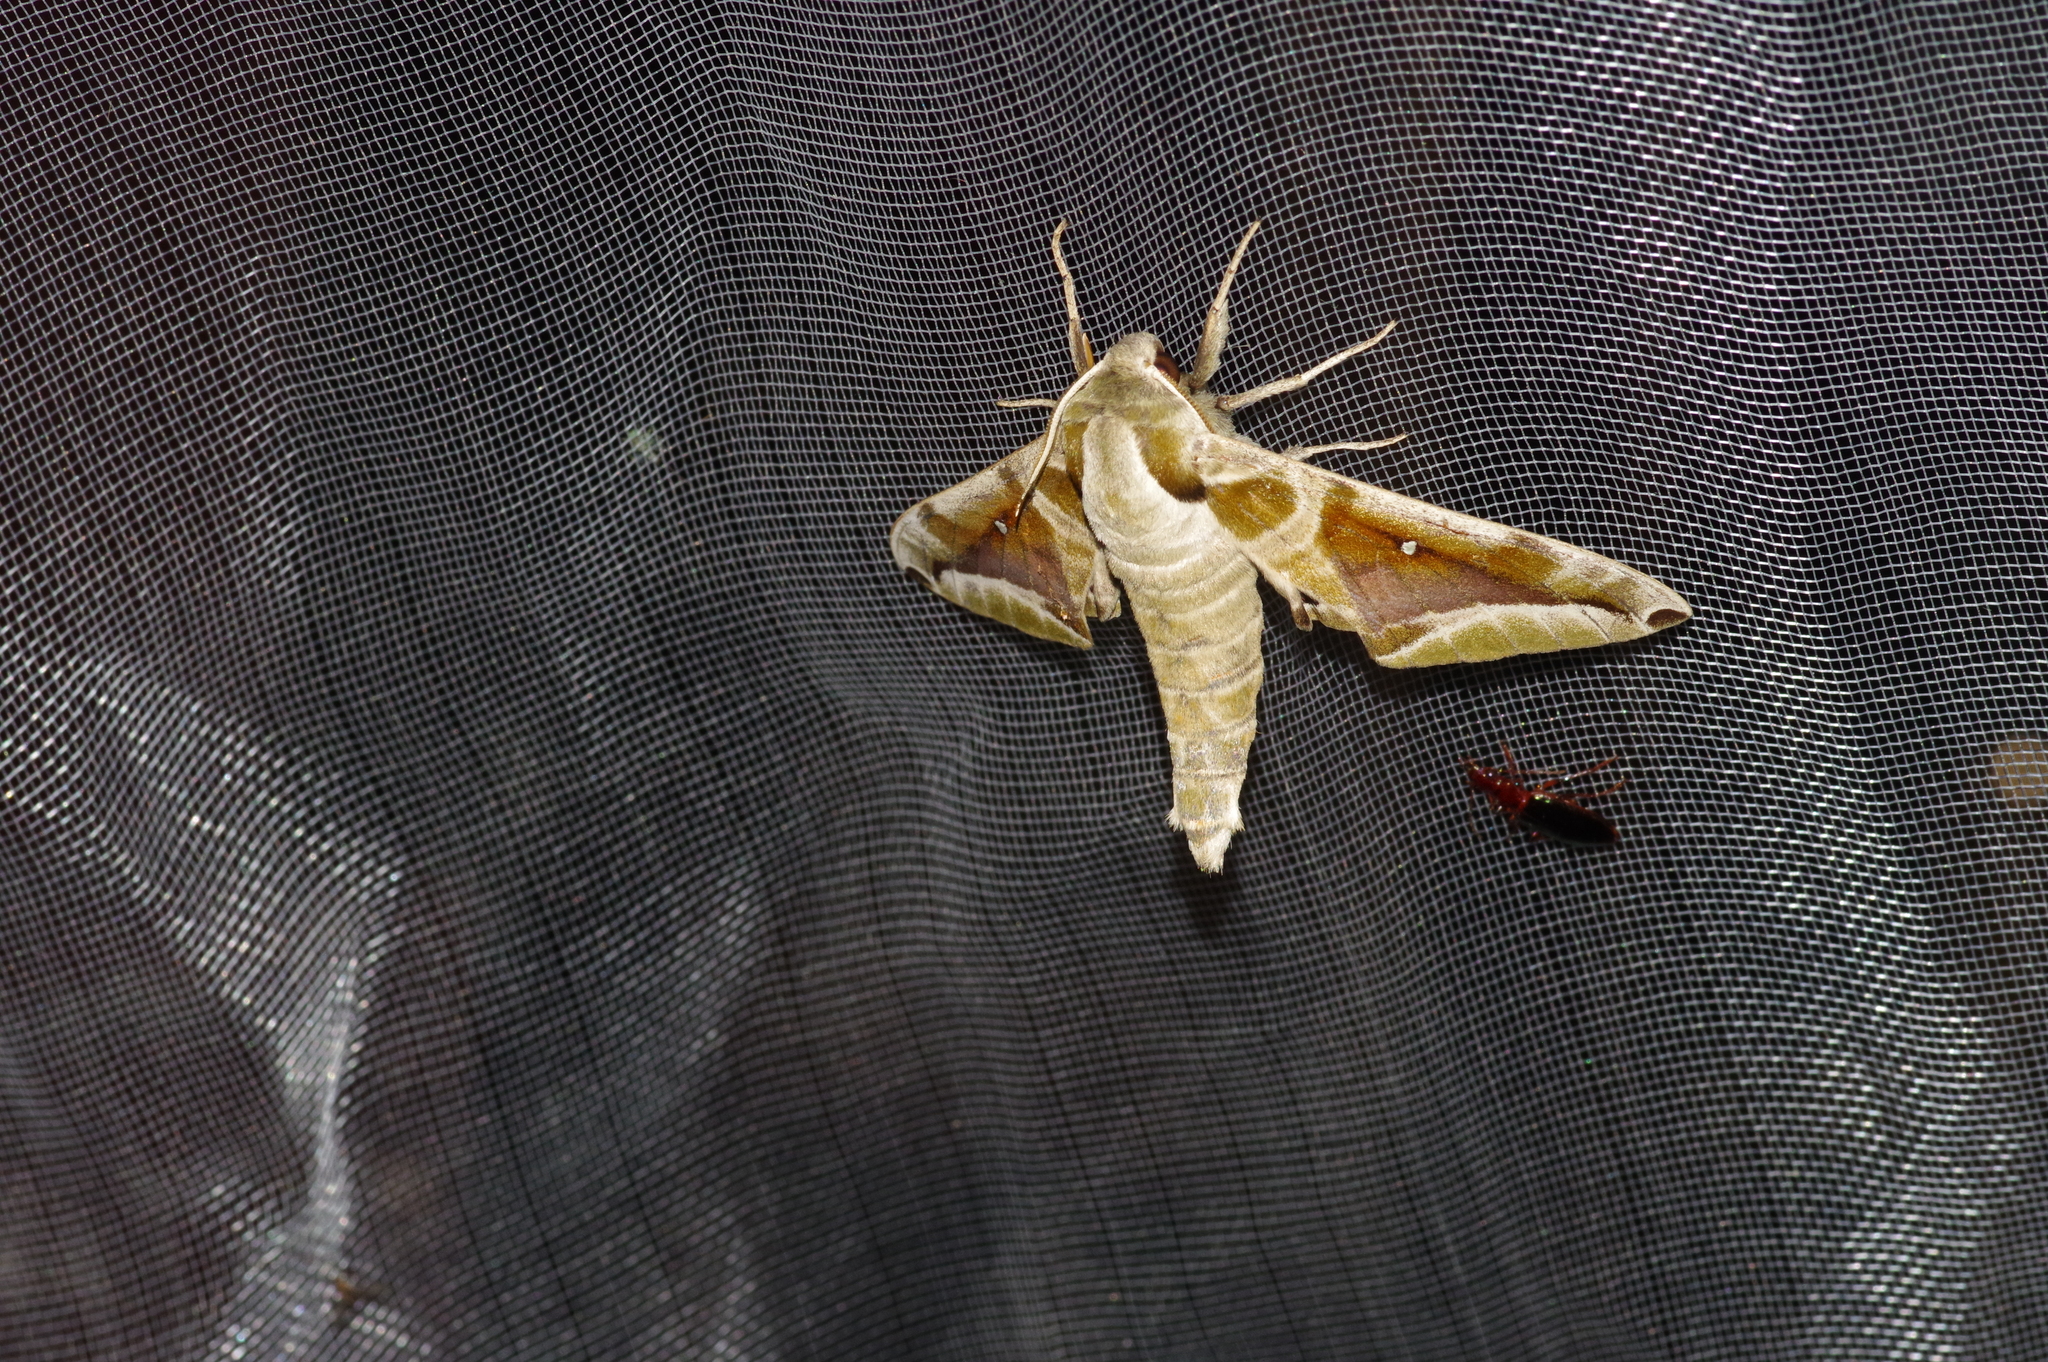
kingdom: Animalia
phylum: Arthropoda
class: Insecta
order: Lepidoptera
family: Sphingidae
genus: Parum
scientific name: Parum colligata
